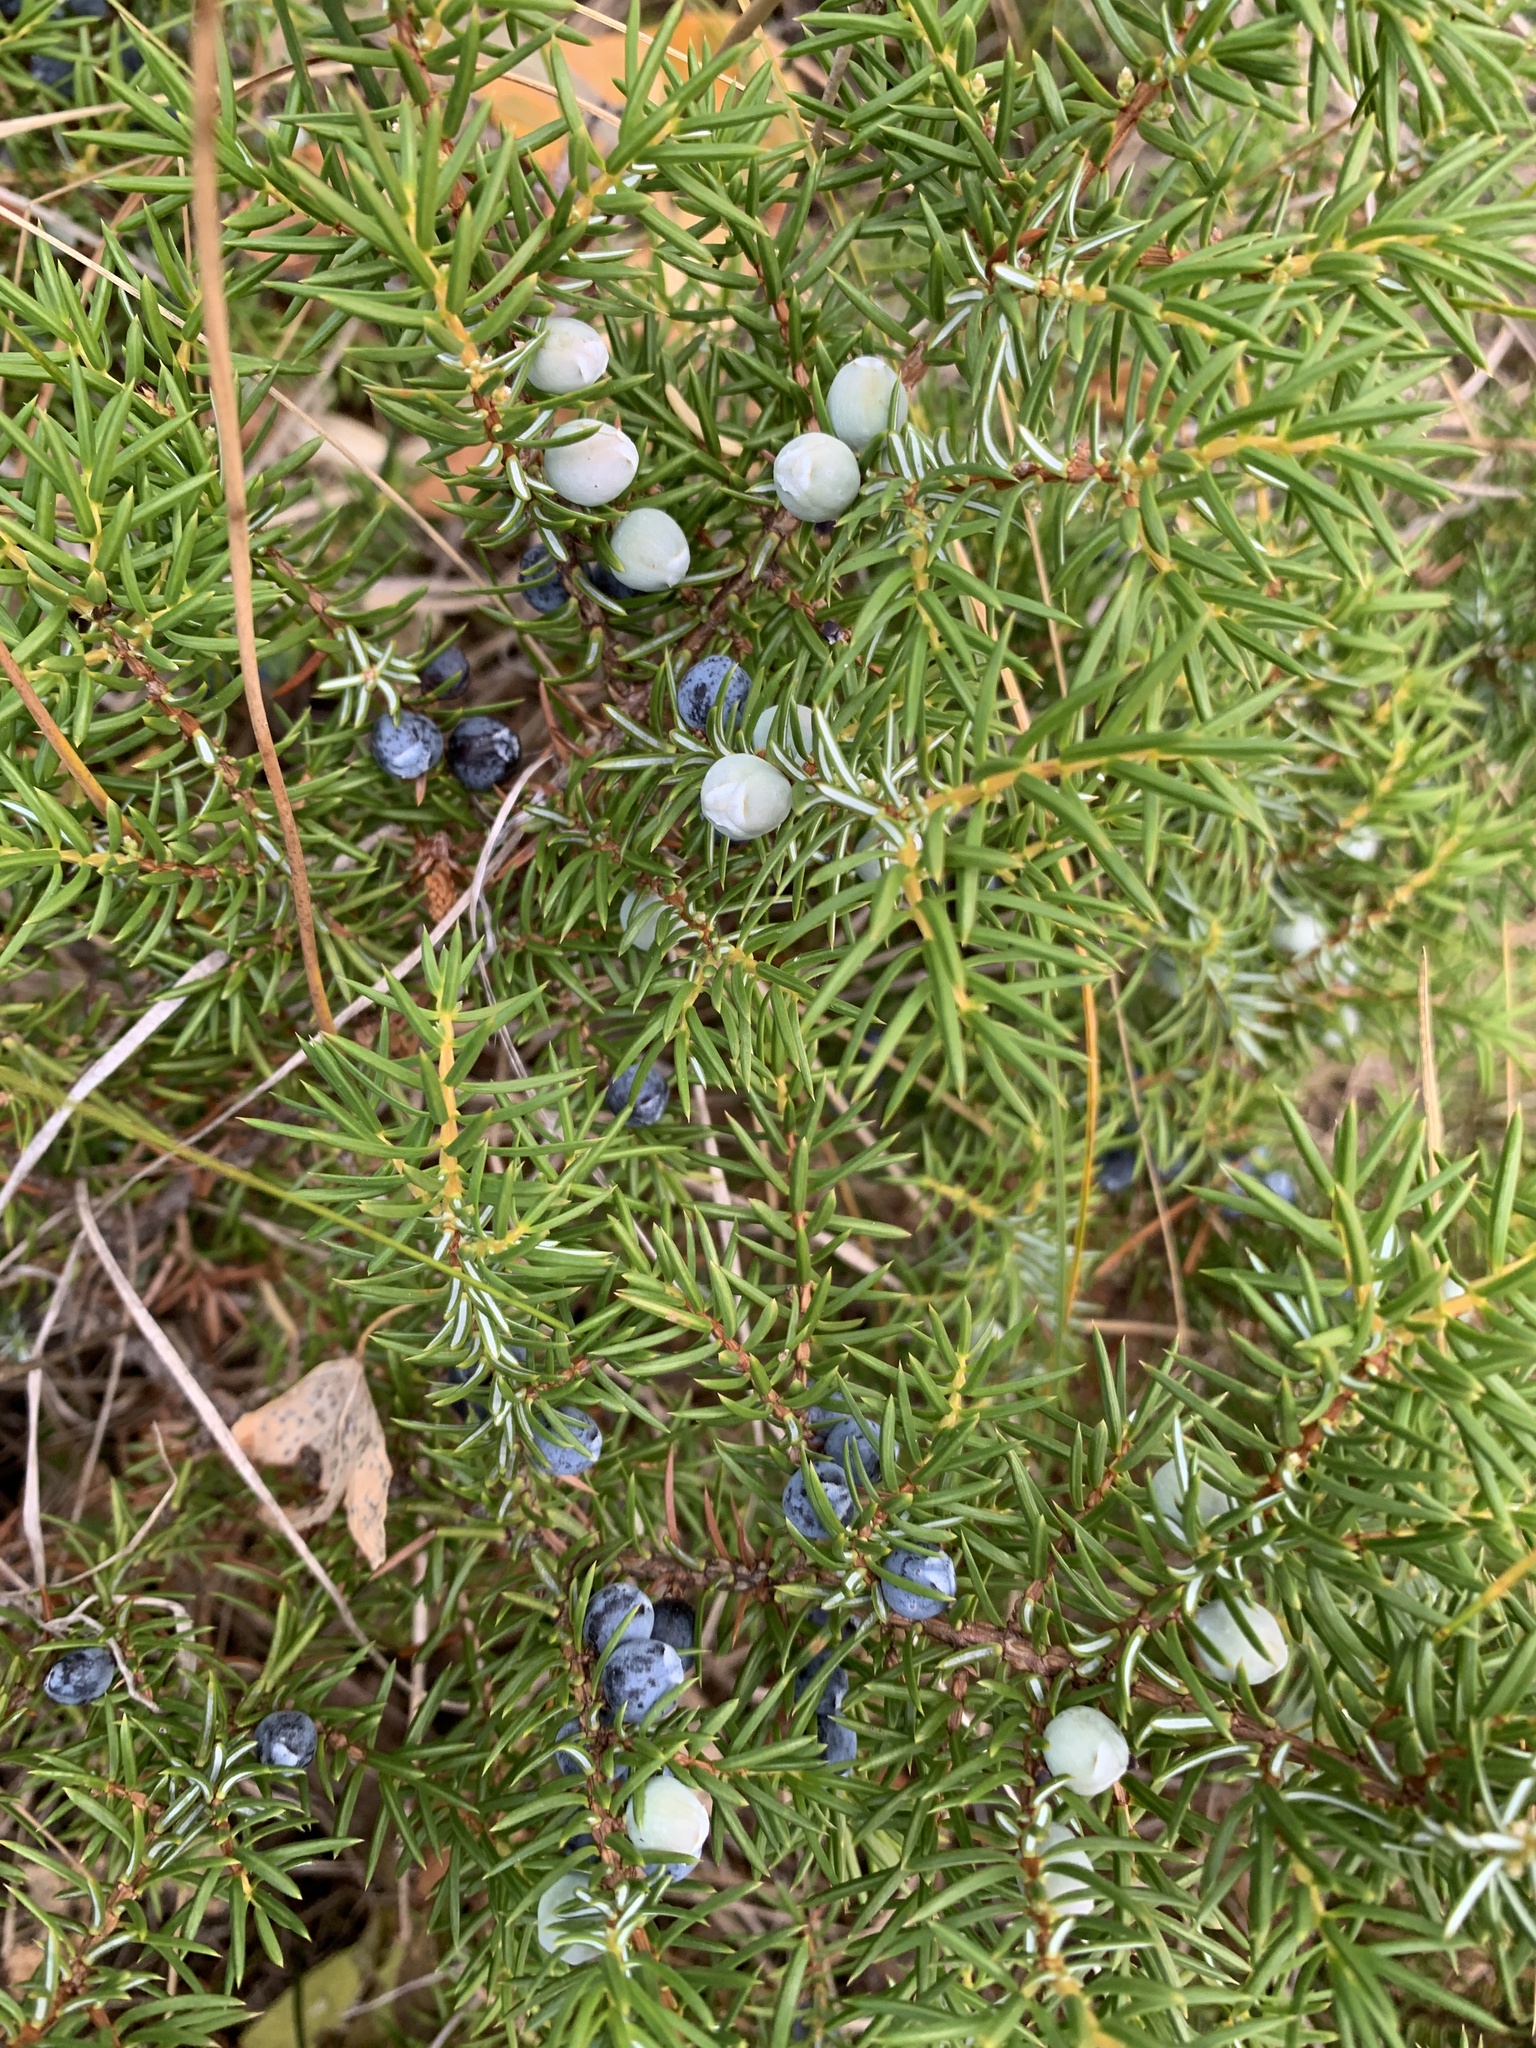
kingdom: Plantae
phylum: Tracheophyta
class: Pinopsida
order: Pinales
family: Cupressaceae
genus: Juniperus
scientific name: Juniperus communis
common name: Common juniper
